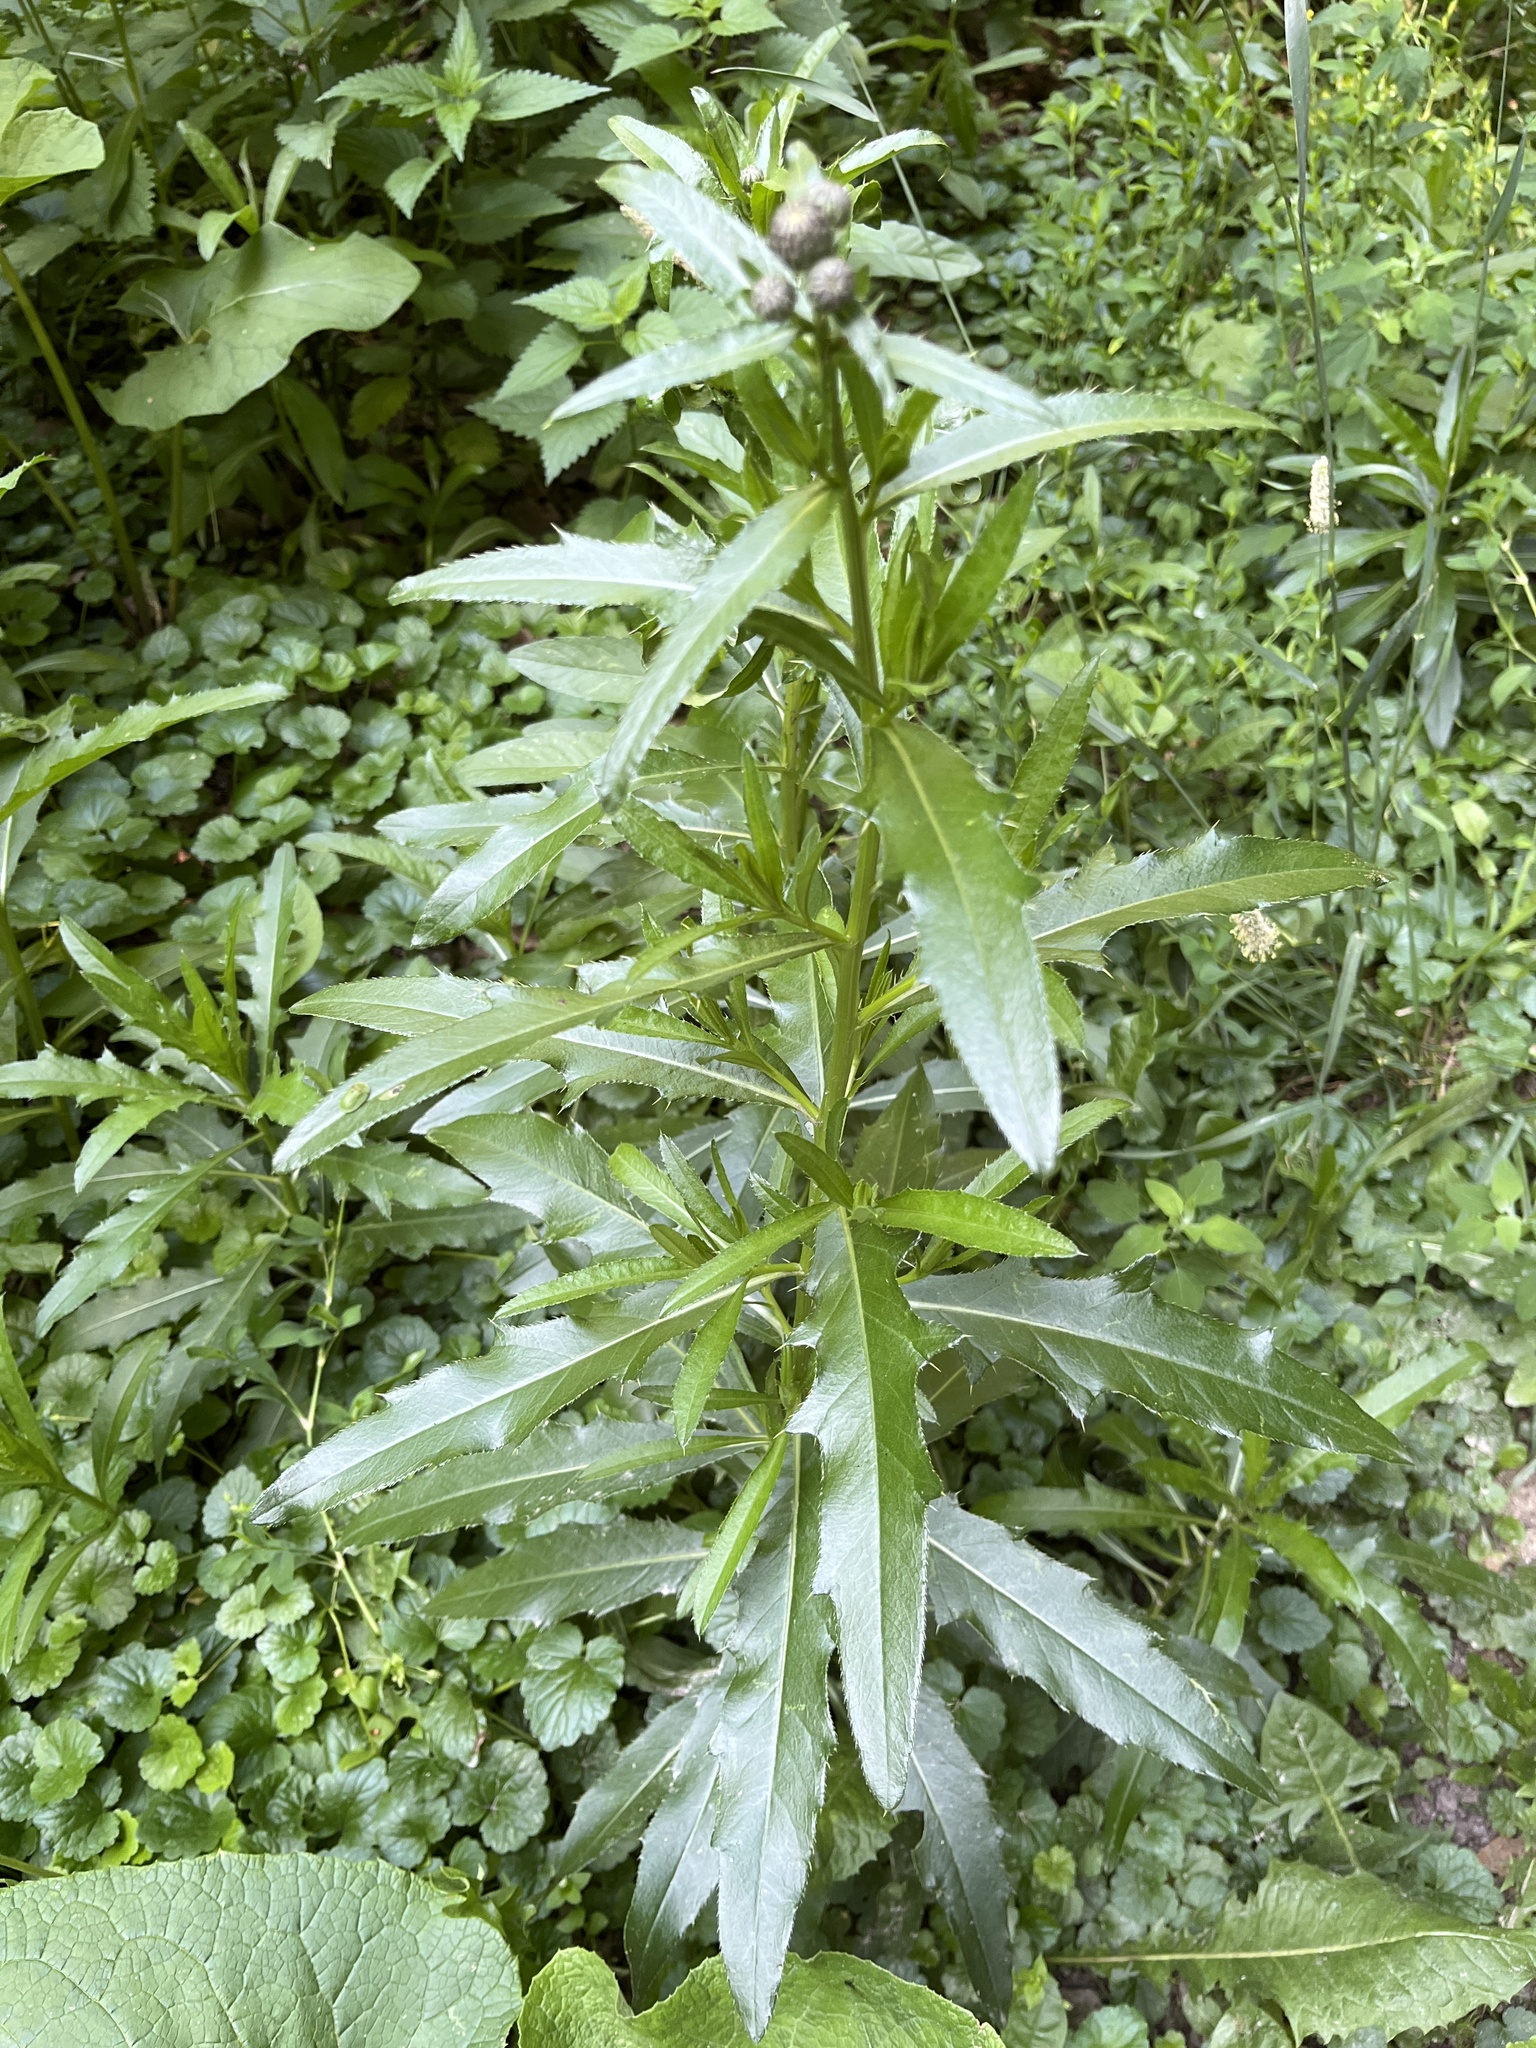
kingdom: Plantae
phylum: Tracheophyta
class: Magnoliopsida
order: Asterales
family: Asteraceae
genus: Cirsium
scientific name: Cirsium arvense
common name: Creeping thistle
